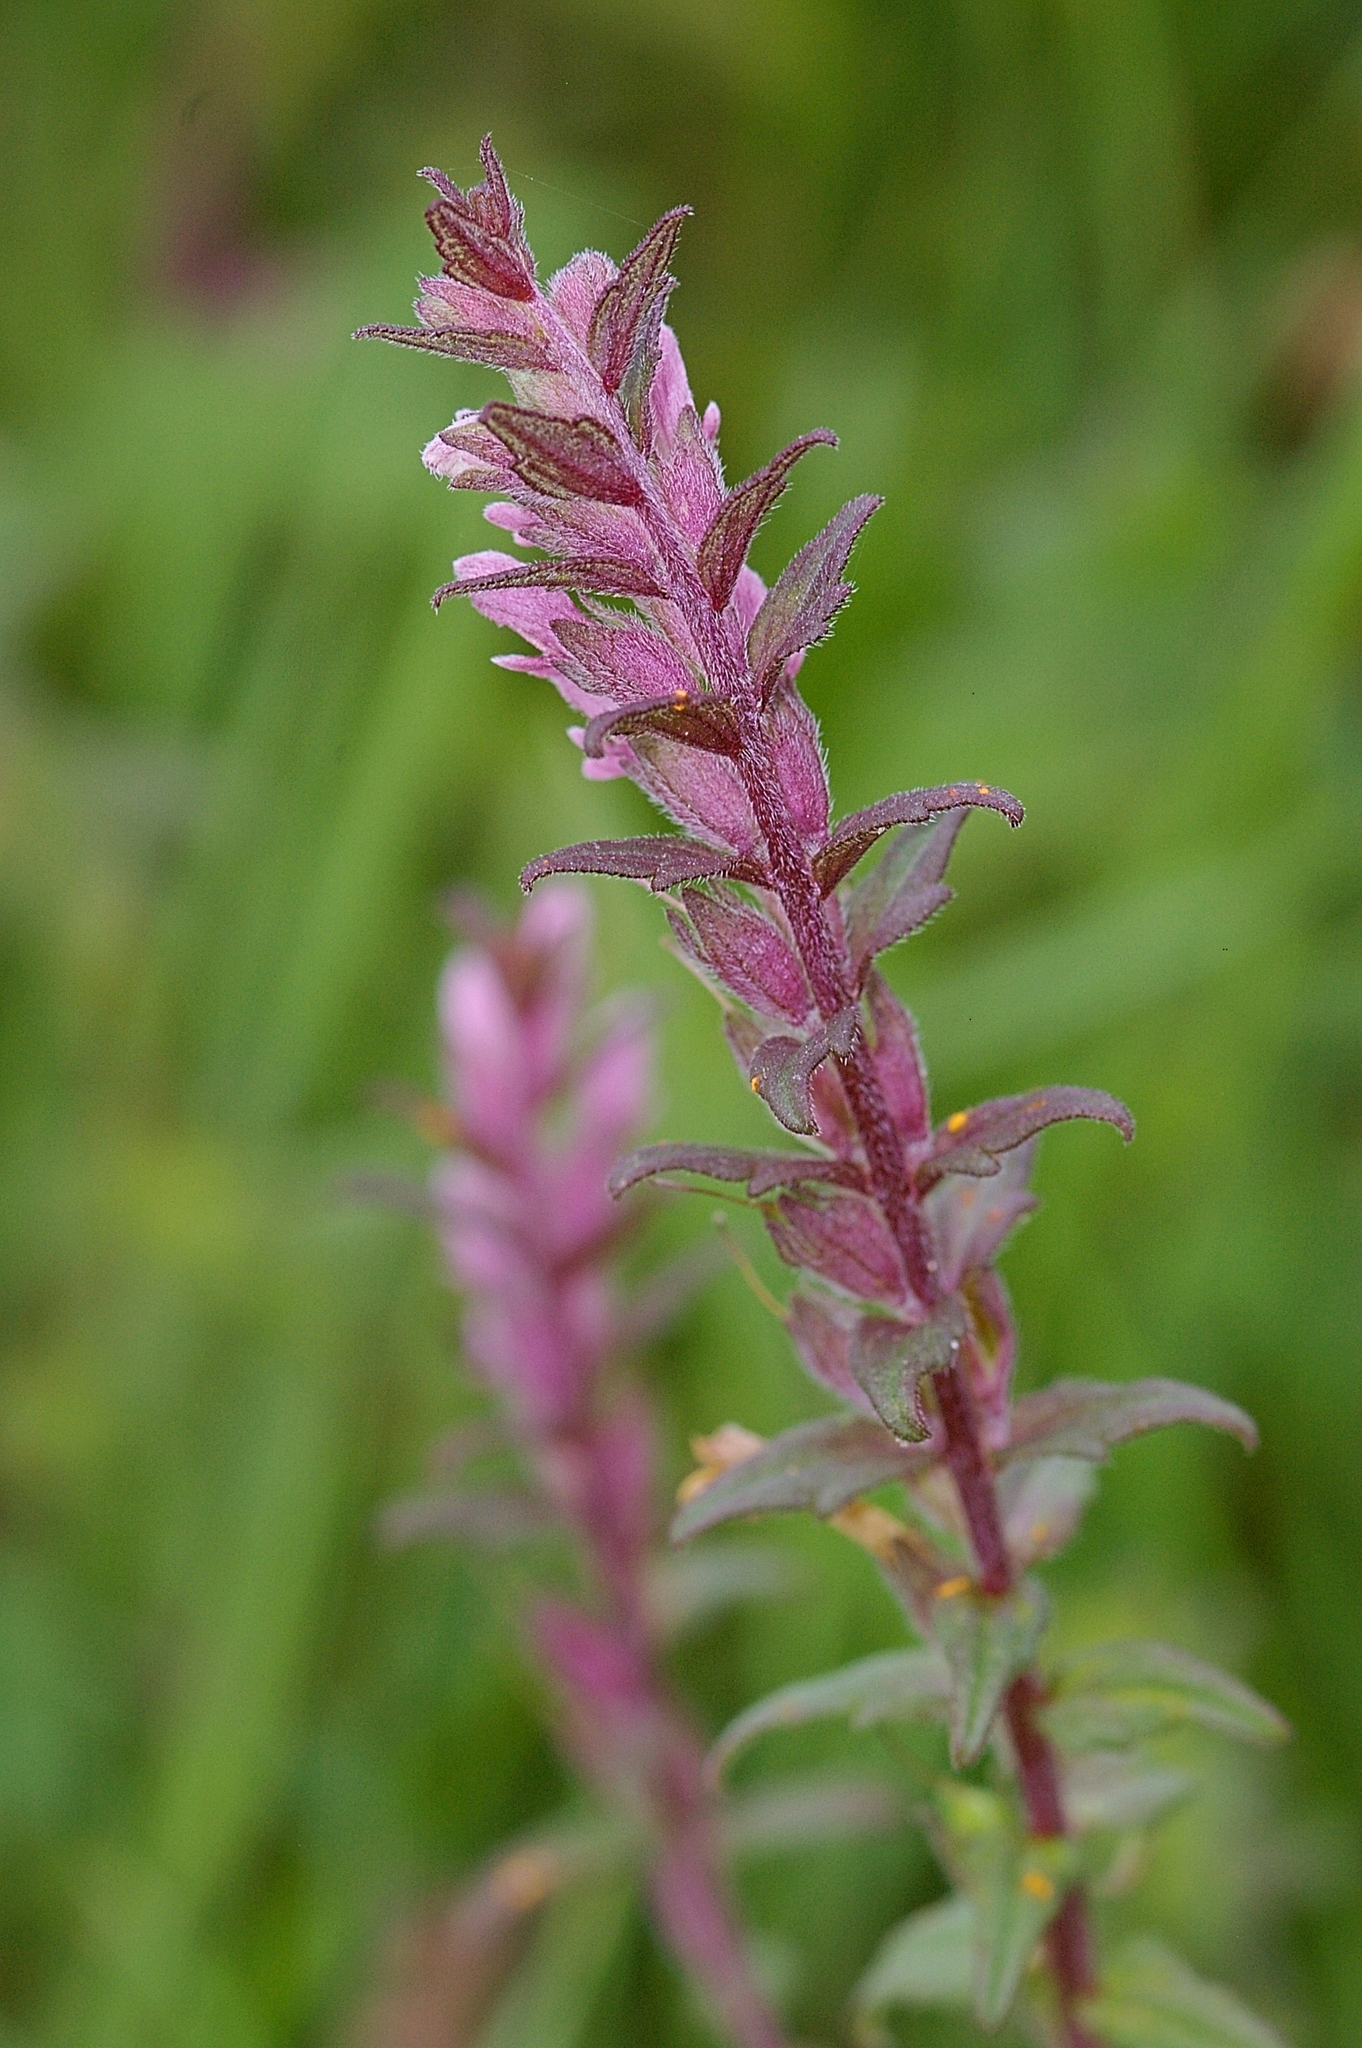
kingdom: Plantae
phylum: Tracheophyta
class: Magnoliopsida
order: Lamiales
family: Orobanchaceae
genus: Odontites
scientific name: Odontites vulgaris
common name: Broomrape
